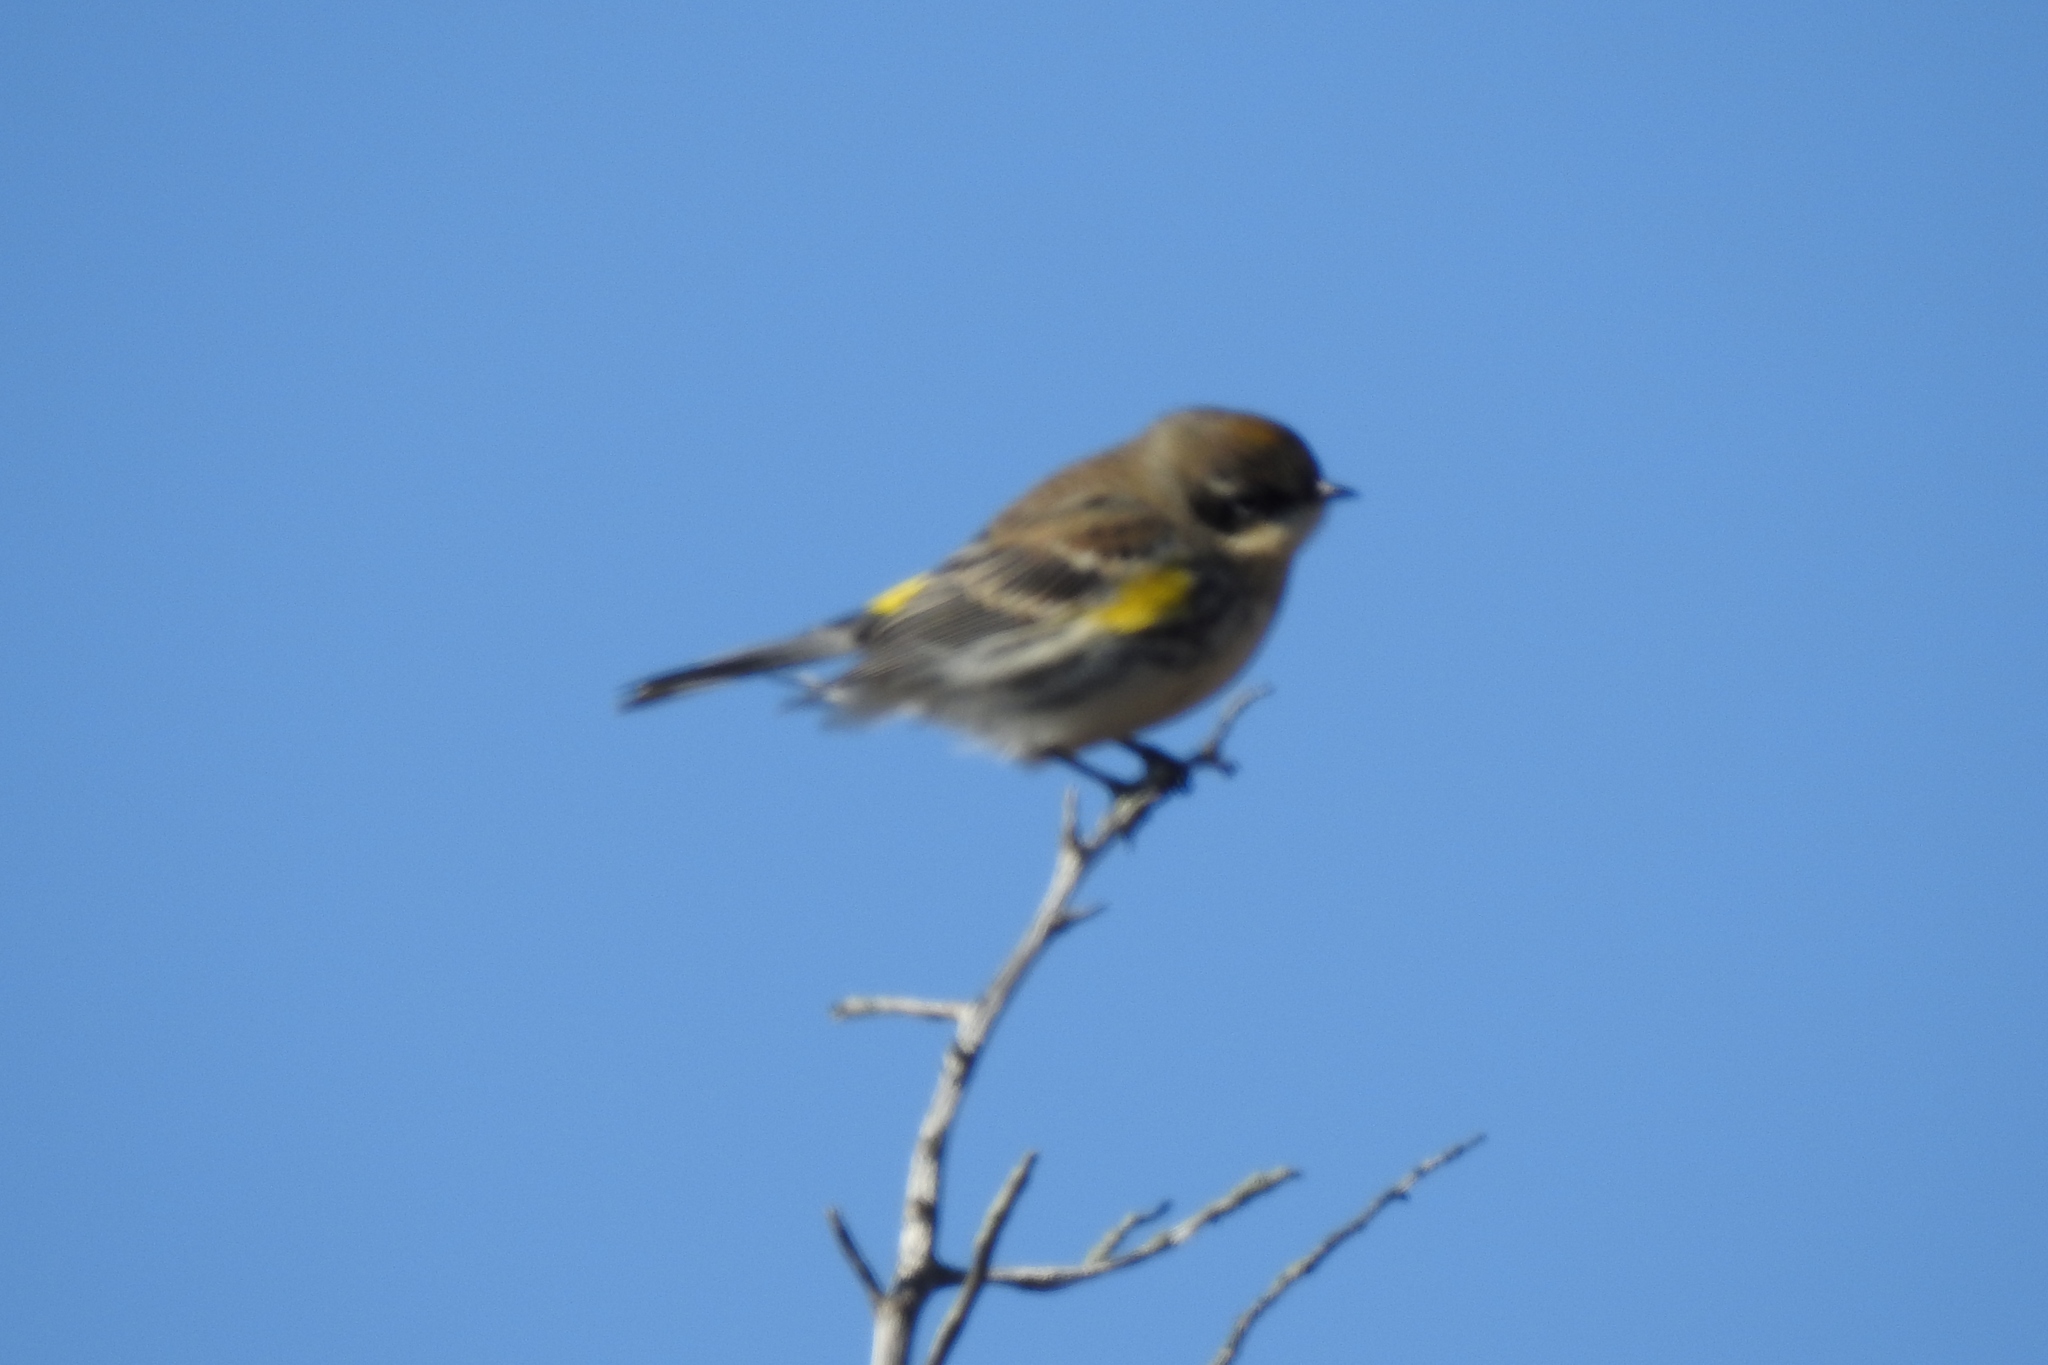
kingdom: Animalia
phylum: Chordata
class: Aves
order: Passeriformes
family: Parulidae
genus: Setophaga
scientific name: Setophaga coronata
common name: Myrtle warbler
